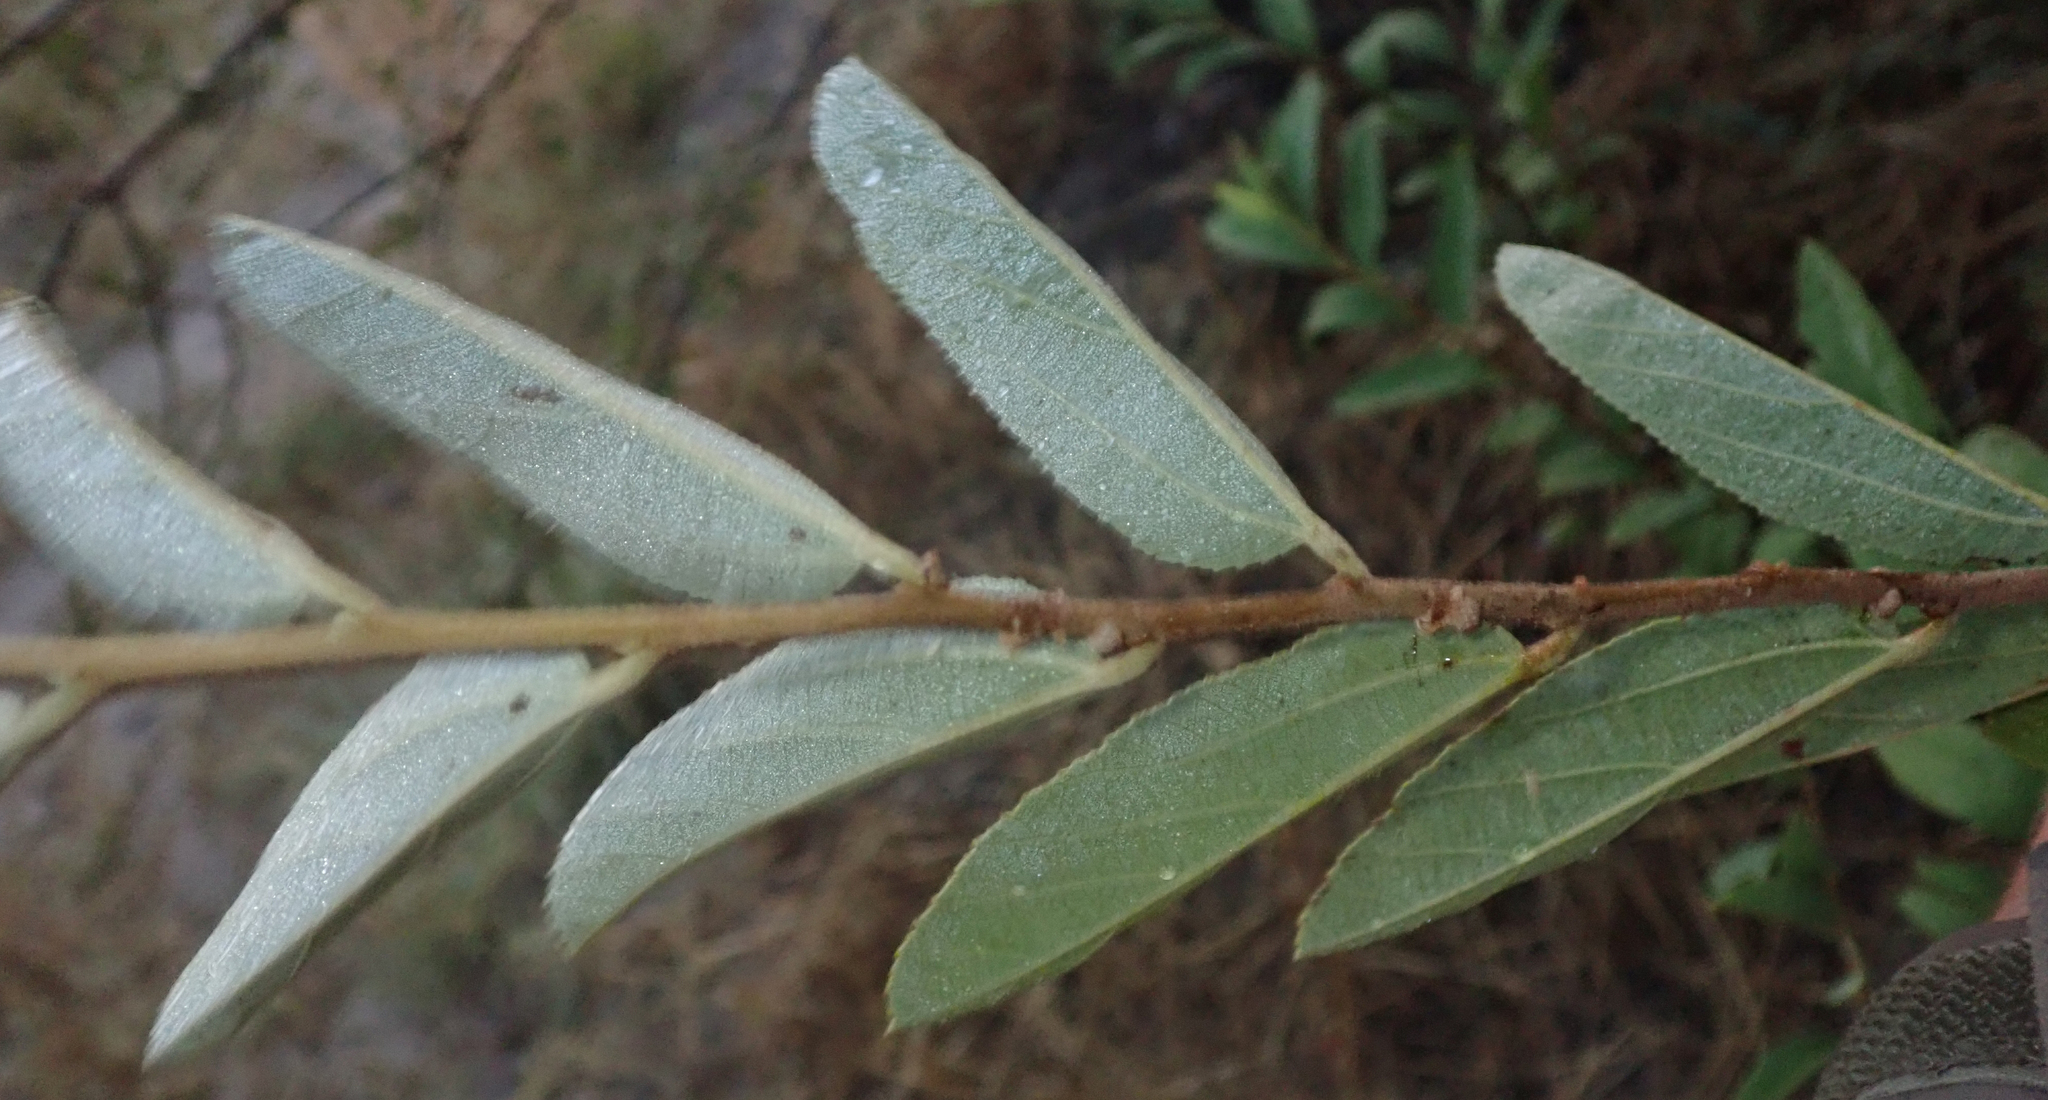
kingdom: Plantae
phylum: Tracheophyta
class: Magnoliopsida
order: Malvales
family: Malvaceae
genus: Grewia
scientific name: Grewia bicolor
